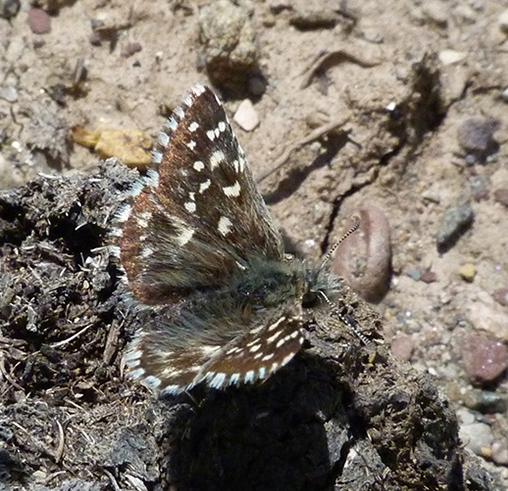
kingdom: Animalia
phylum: Arthropoda
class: Insecta
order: Lepidoptera
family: Hesperiidae
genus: Pyrgus
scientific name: Pyrgus malvoides
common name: Southern grizzled skipper
